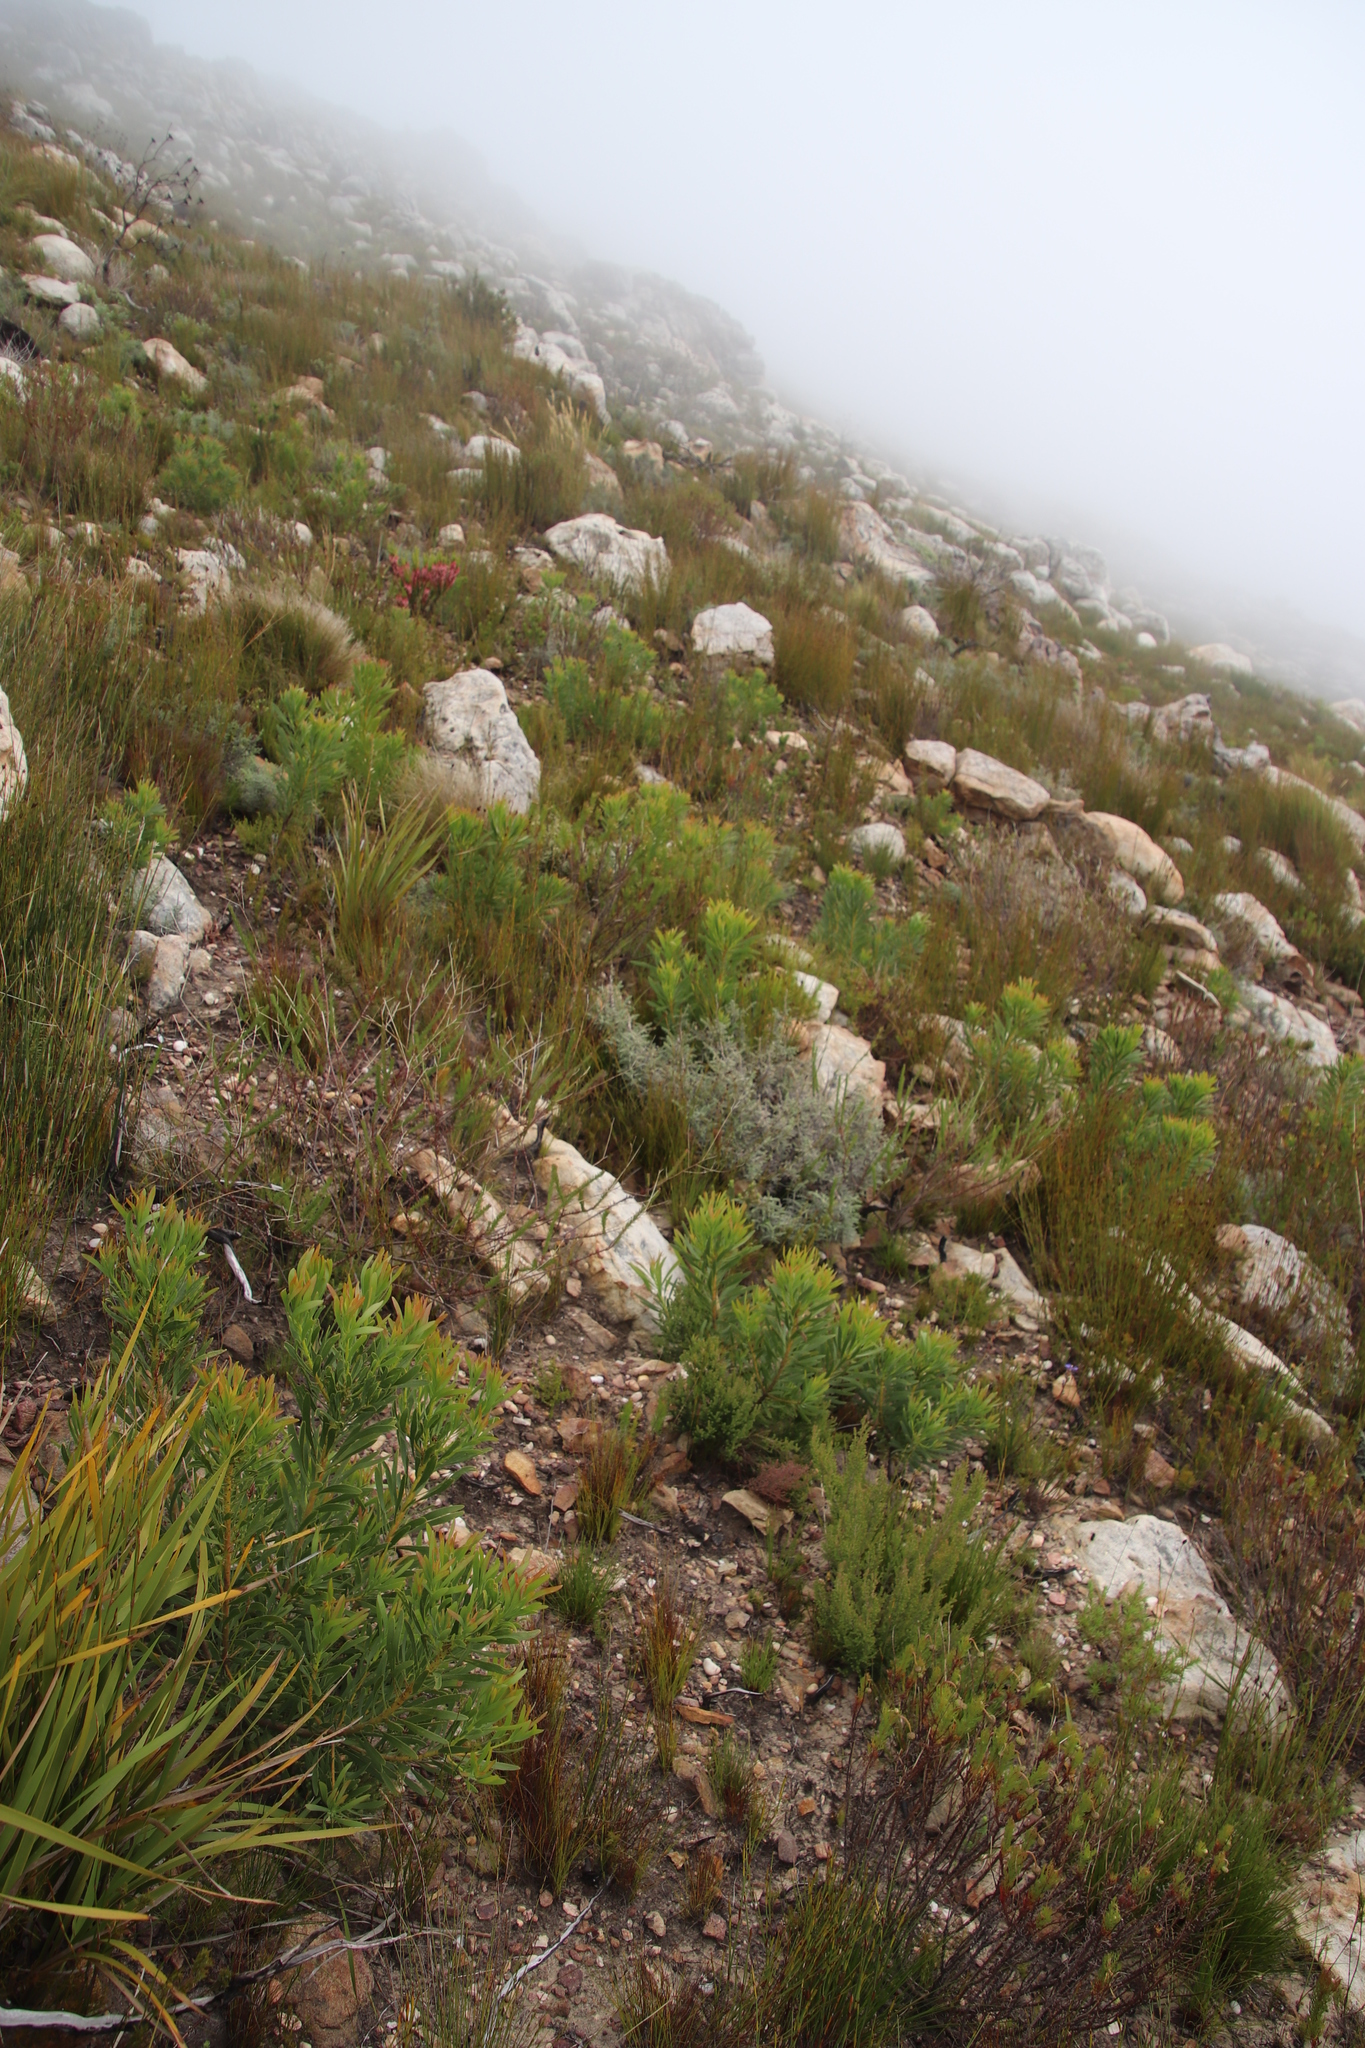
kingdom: Plantae
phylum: Tracheophyta
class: Magnoliopsida
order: Proteales
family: Proteaceae
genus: Protea
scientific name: Protea repens
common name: Sugarbush
